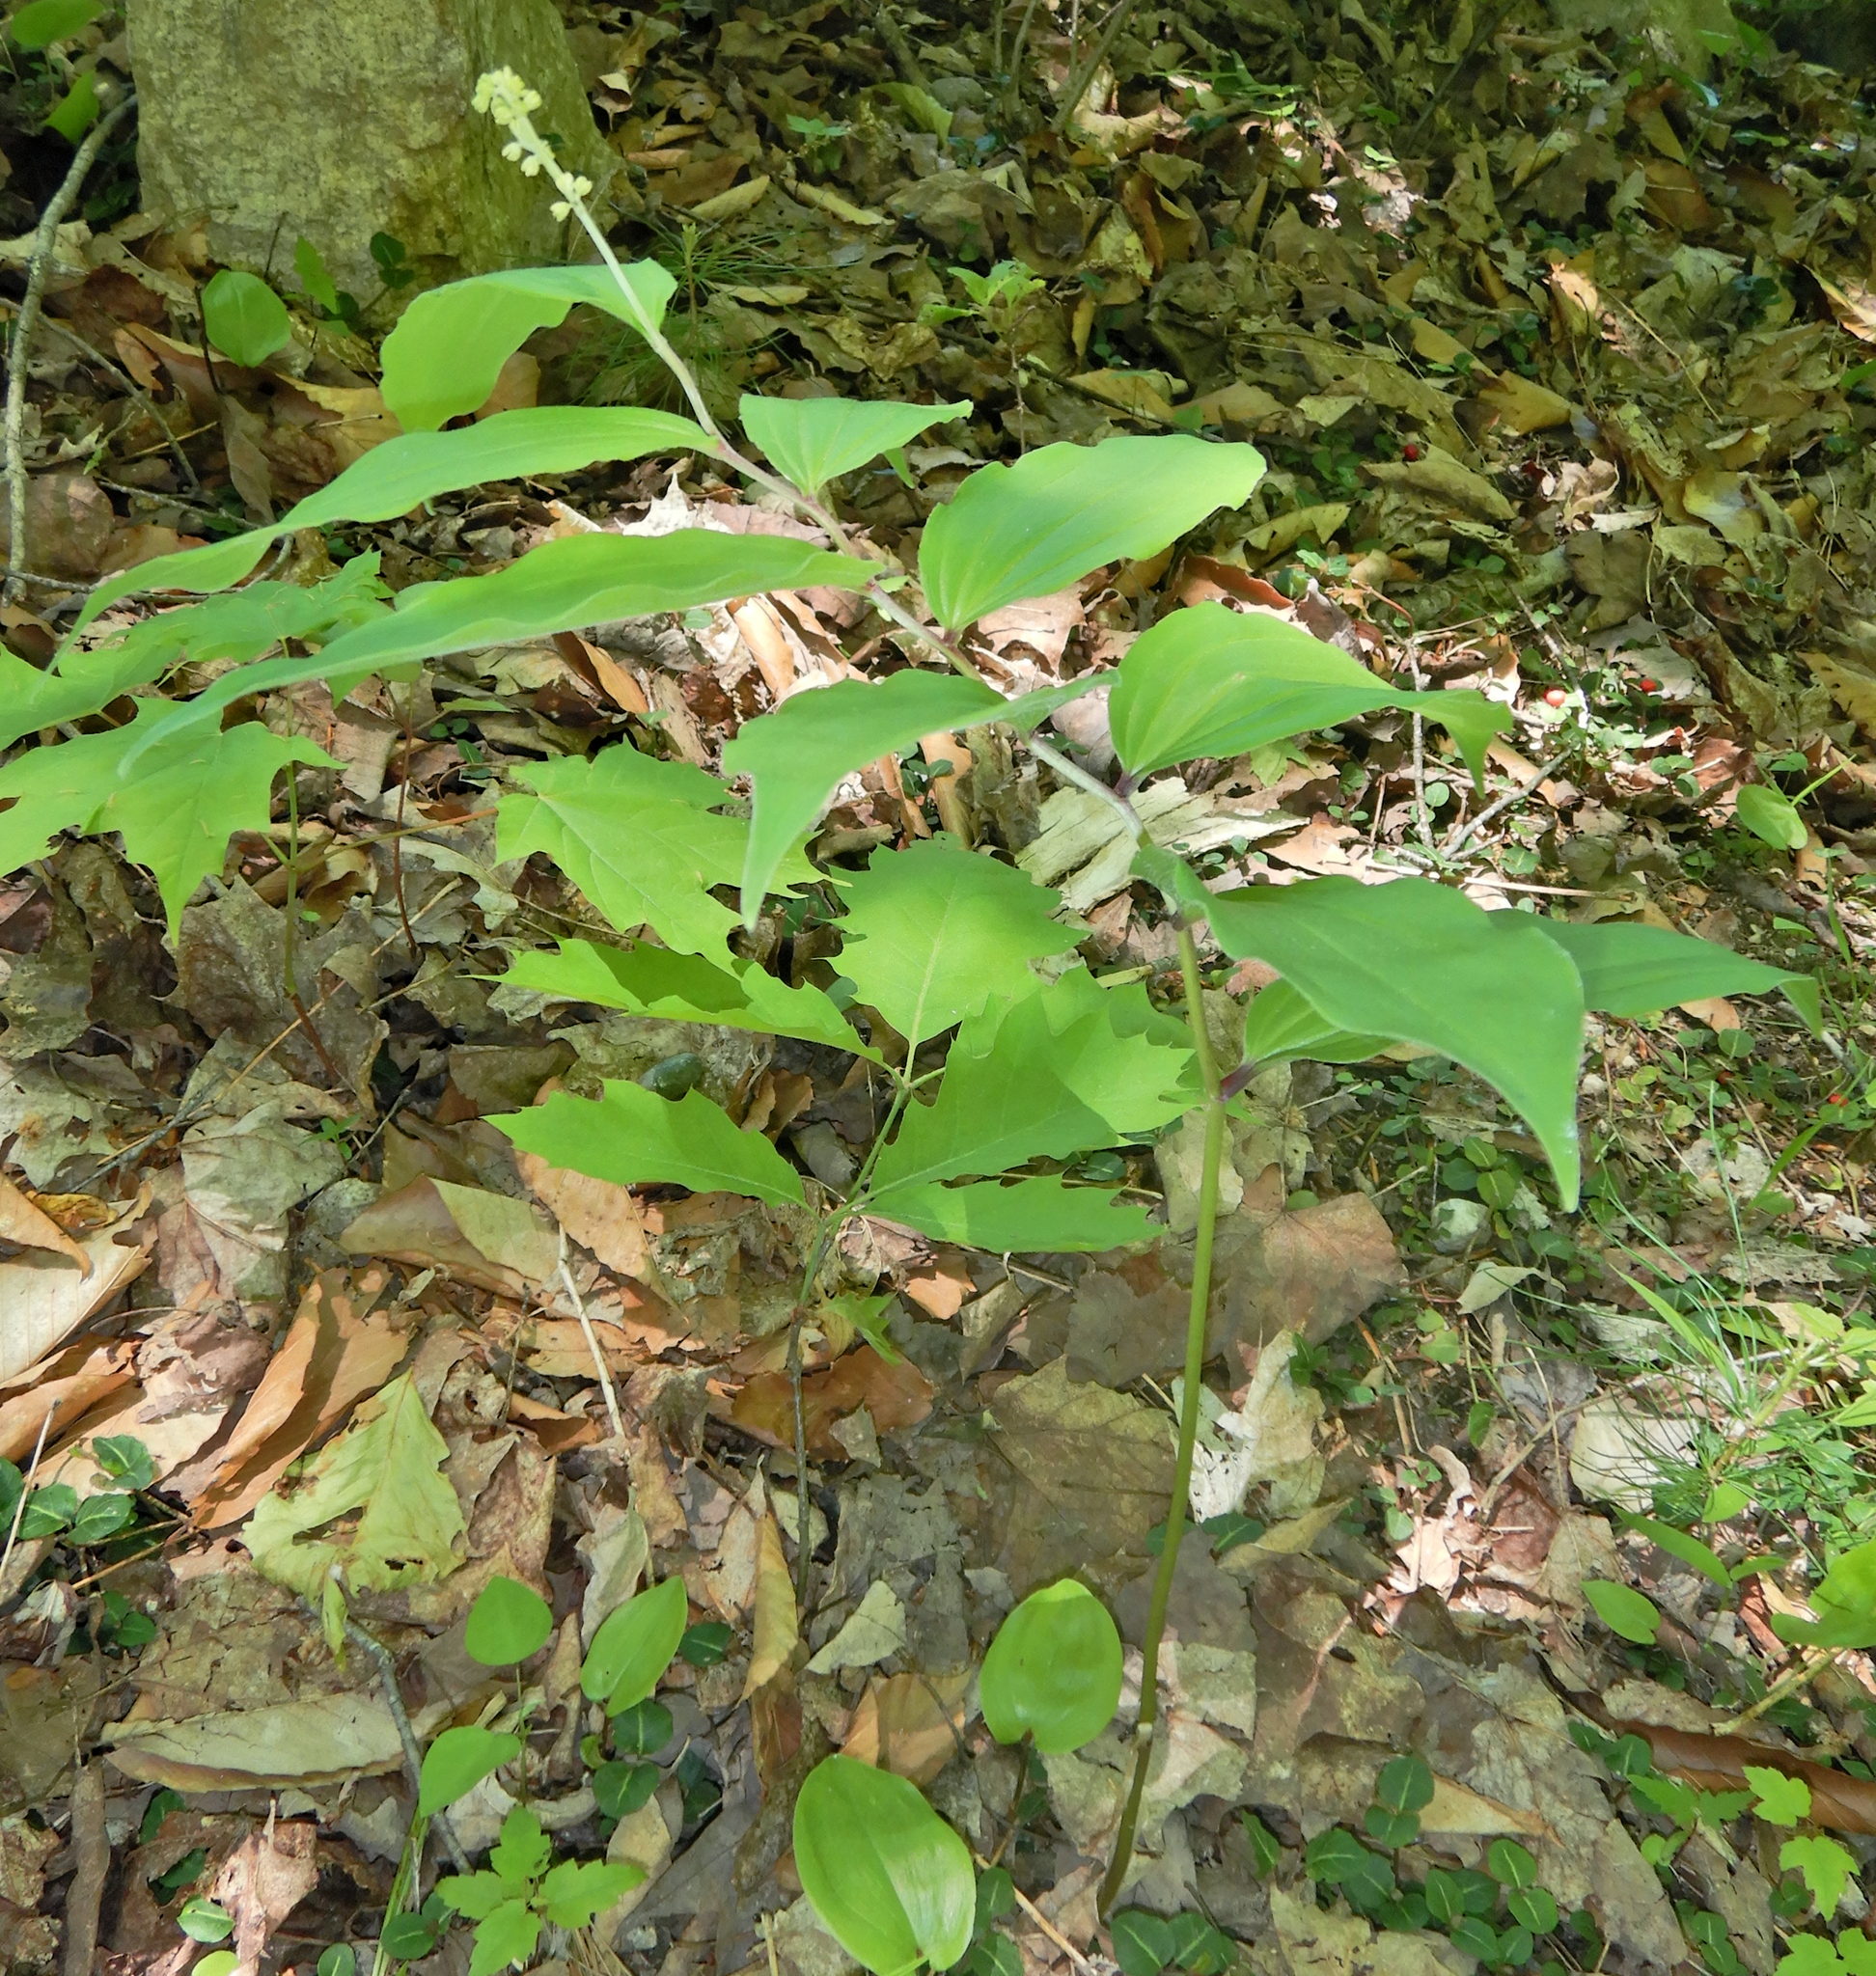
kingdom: Plantae
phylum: Tracheophyta
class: Liliopsida
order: Asparagales
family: Asparagaceae
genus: Maianthemum
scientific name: Maianthemum racemosum
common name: False spikenard
